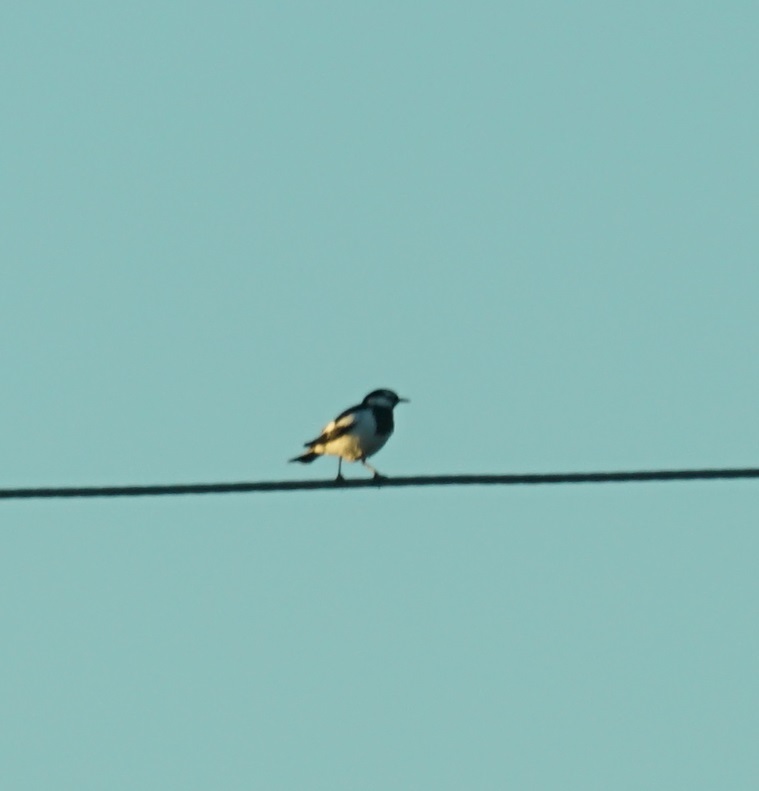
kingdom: Animalia
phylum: Chordata
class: Aves
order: Passeriformes
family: Monarchidae
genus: Grallina
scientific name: Grallina cyanoleuca
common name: Magpie-lark
